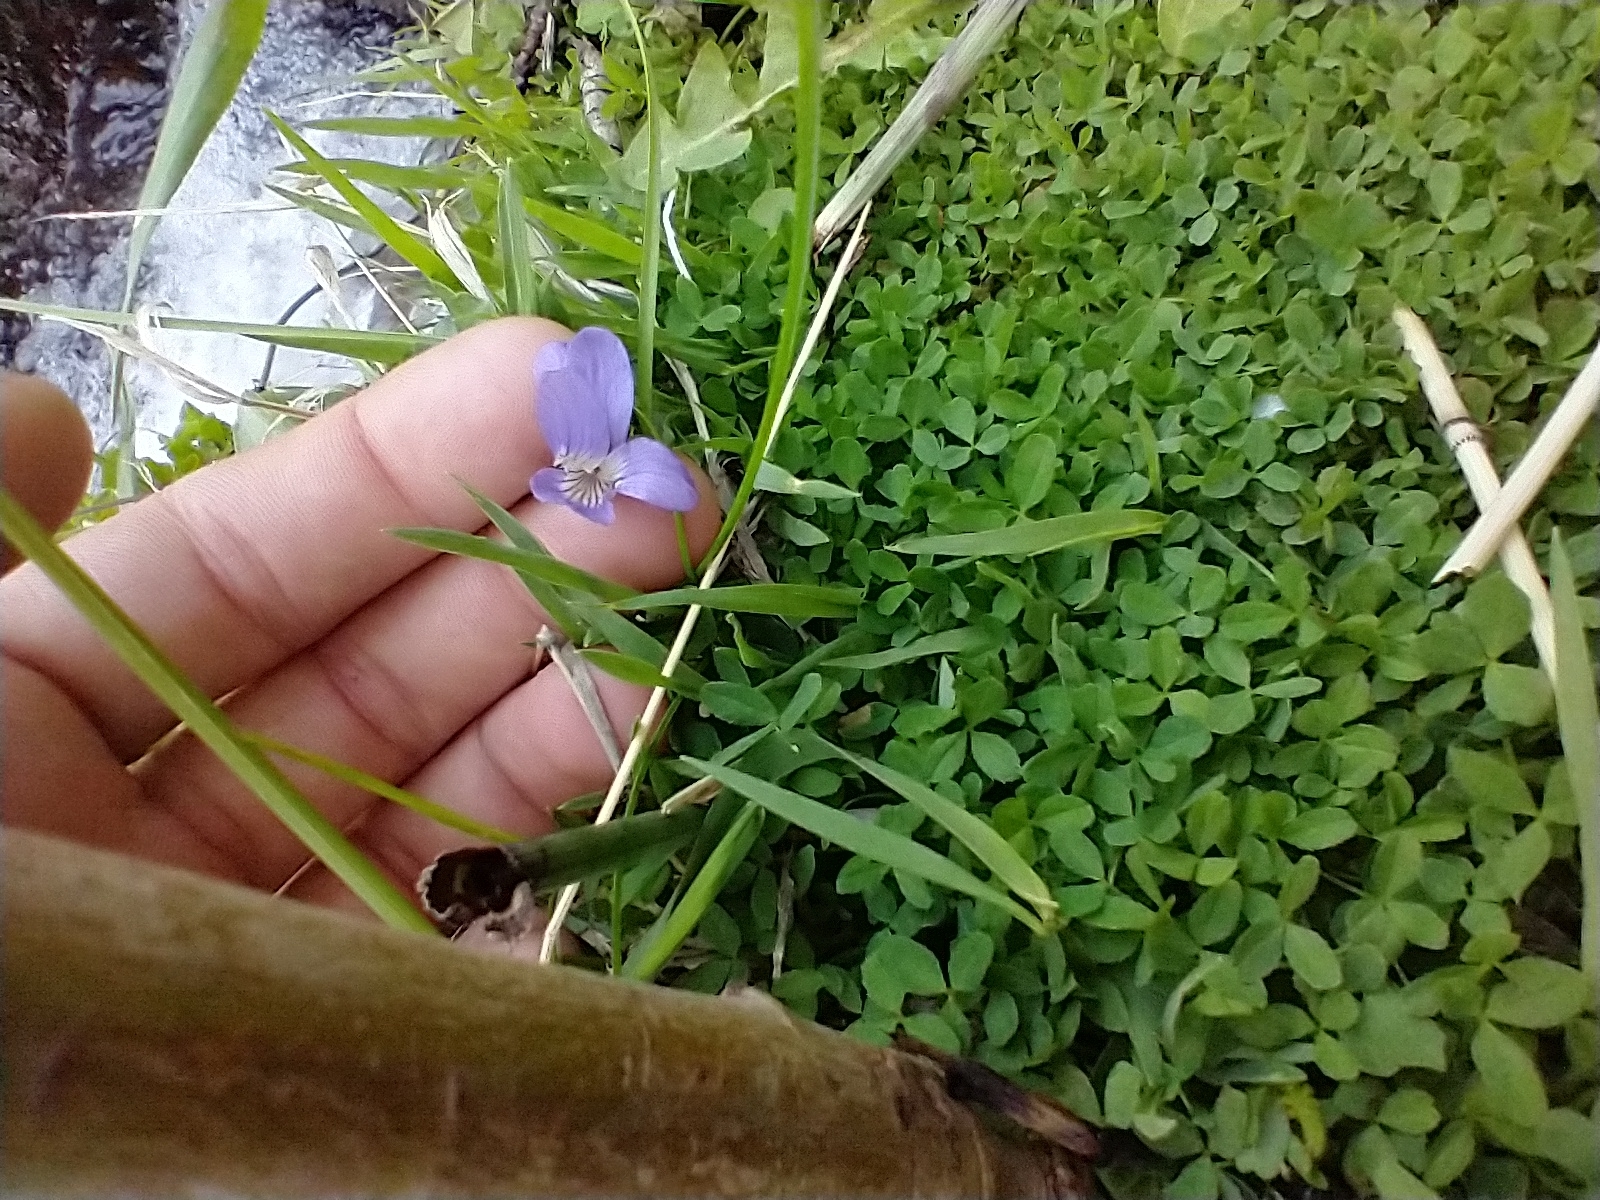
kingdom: Plantae
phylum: Tracheophyta
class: Magnoliopsida
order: Malpighiales
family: Violaceae
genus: Viola
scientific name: Viola nephrophylla
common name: Blue meadow violet
